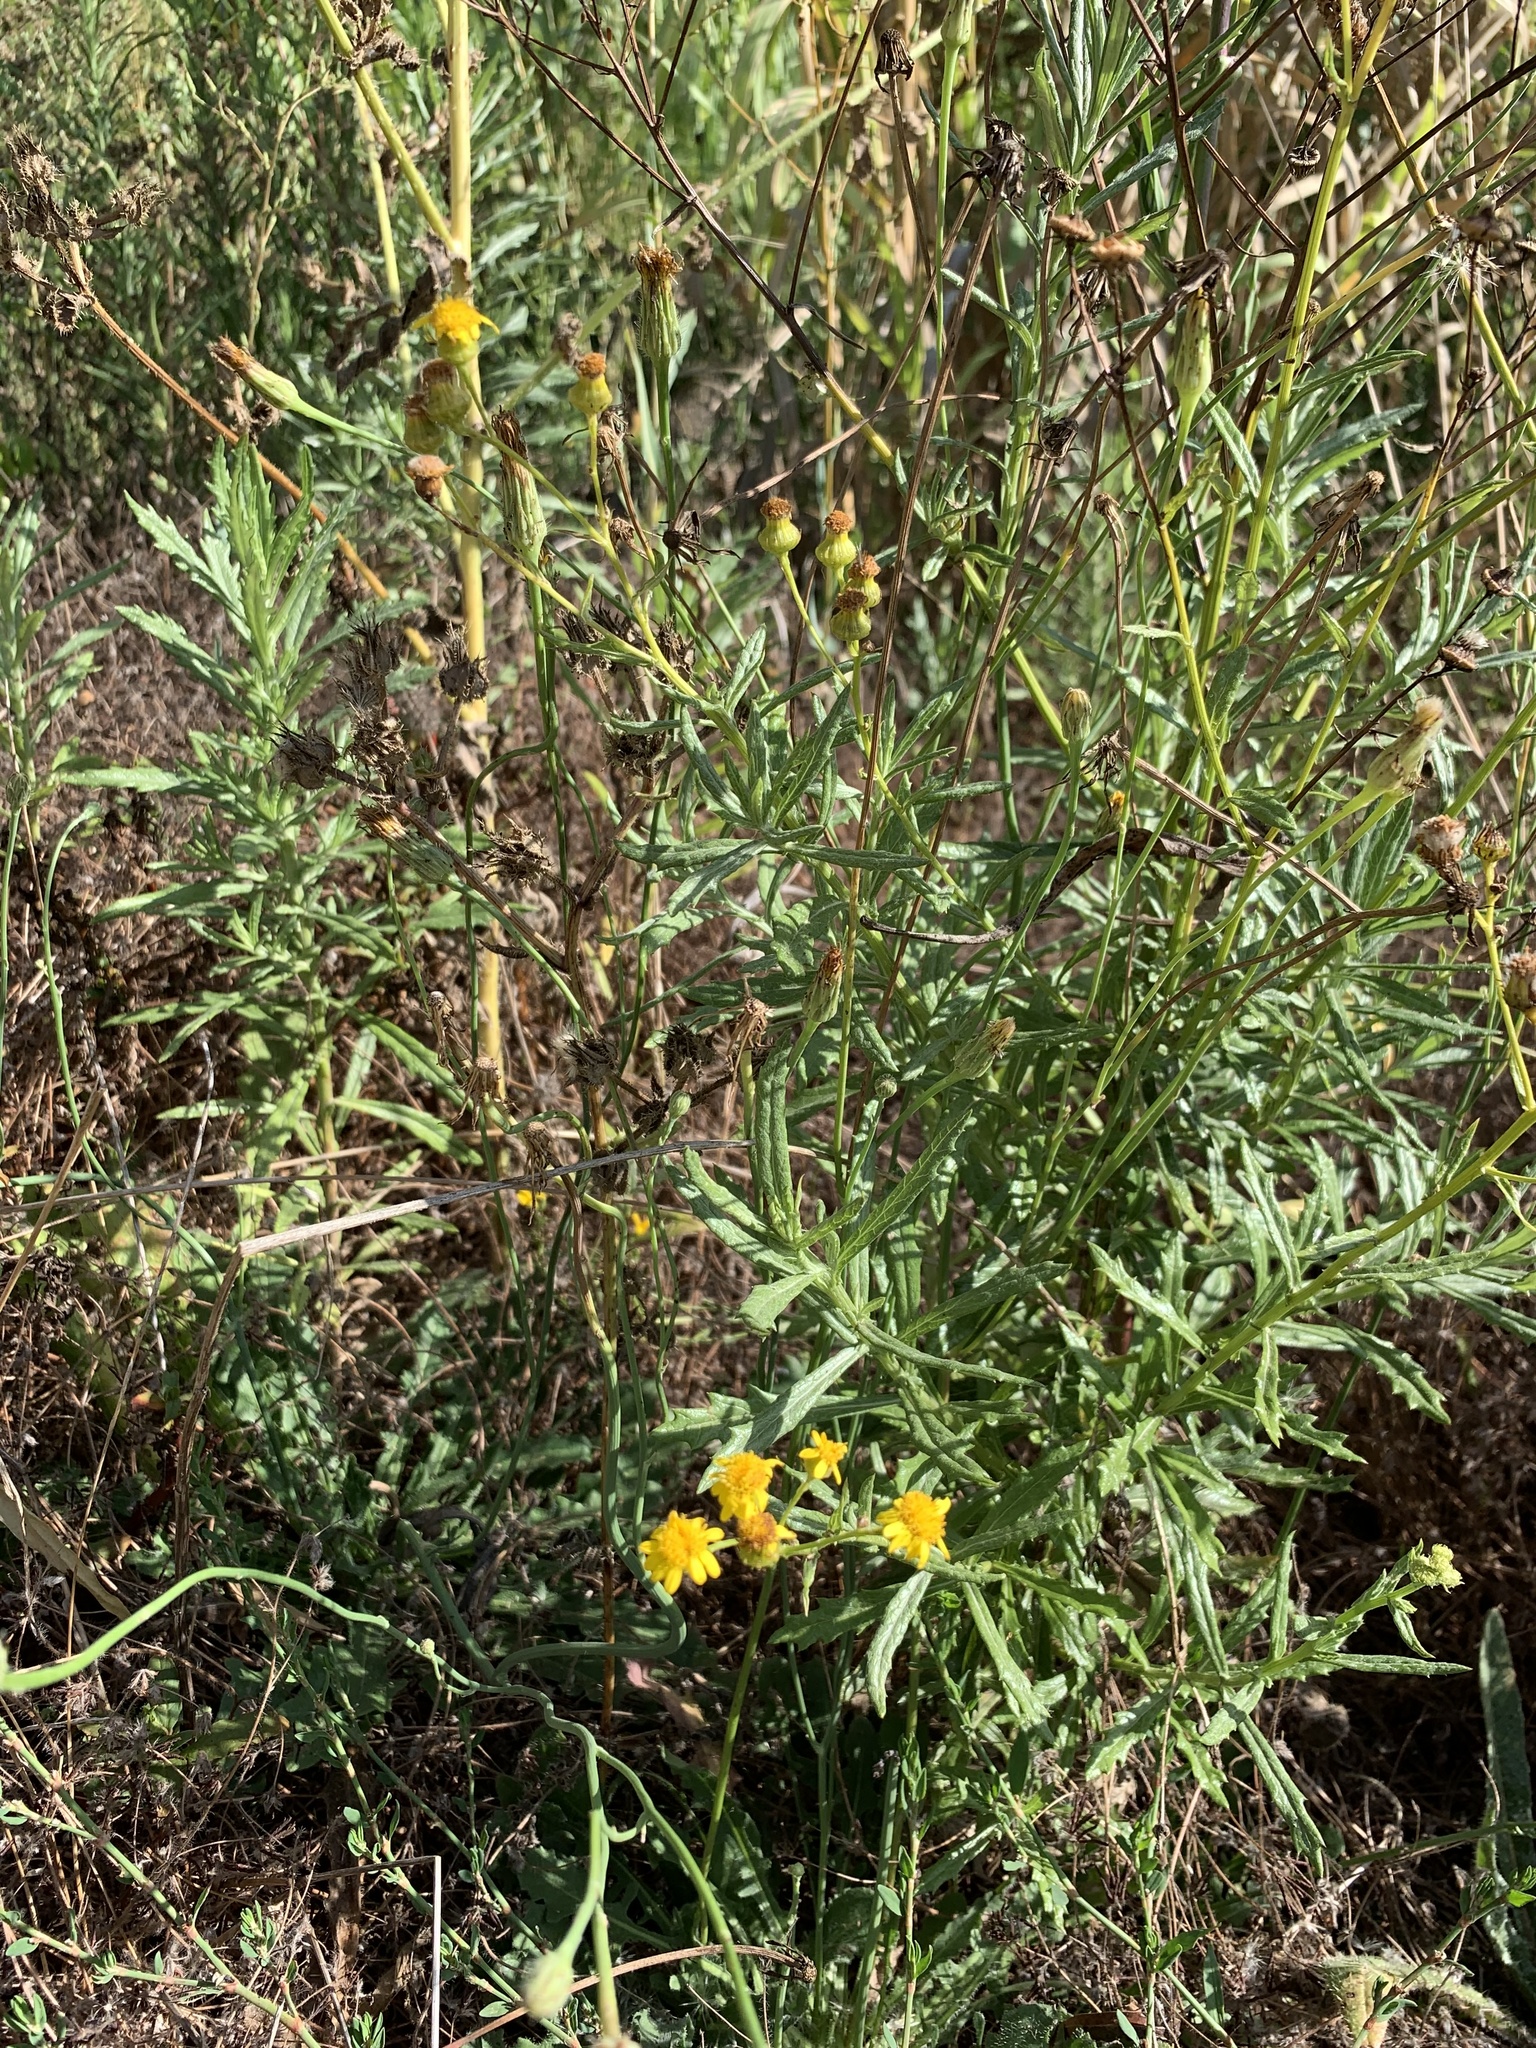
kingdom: Plantae
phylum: Tracheophyta
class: Magnoliopsida
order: Asterales
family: Asteraceae
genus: Senecio
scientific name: Senecio pterophorus
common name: Shoddy ragwort
